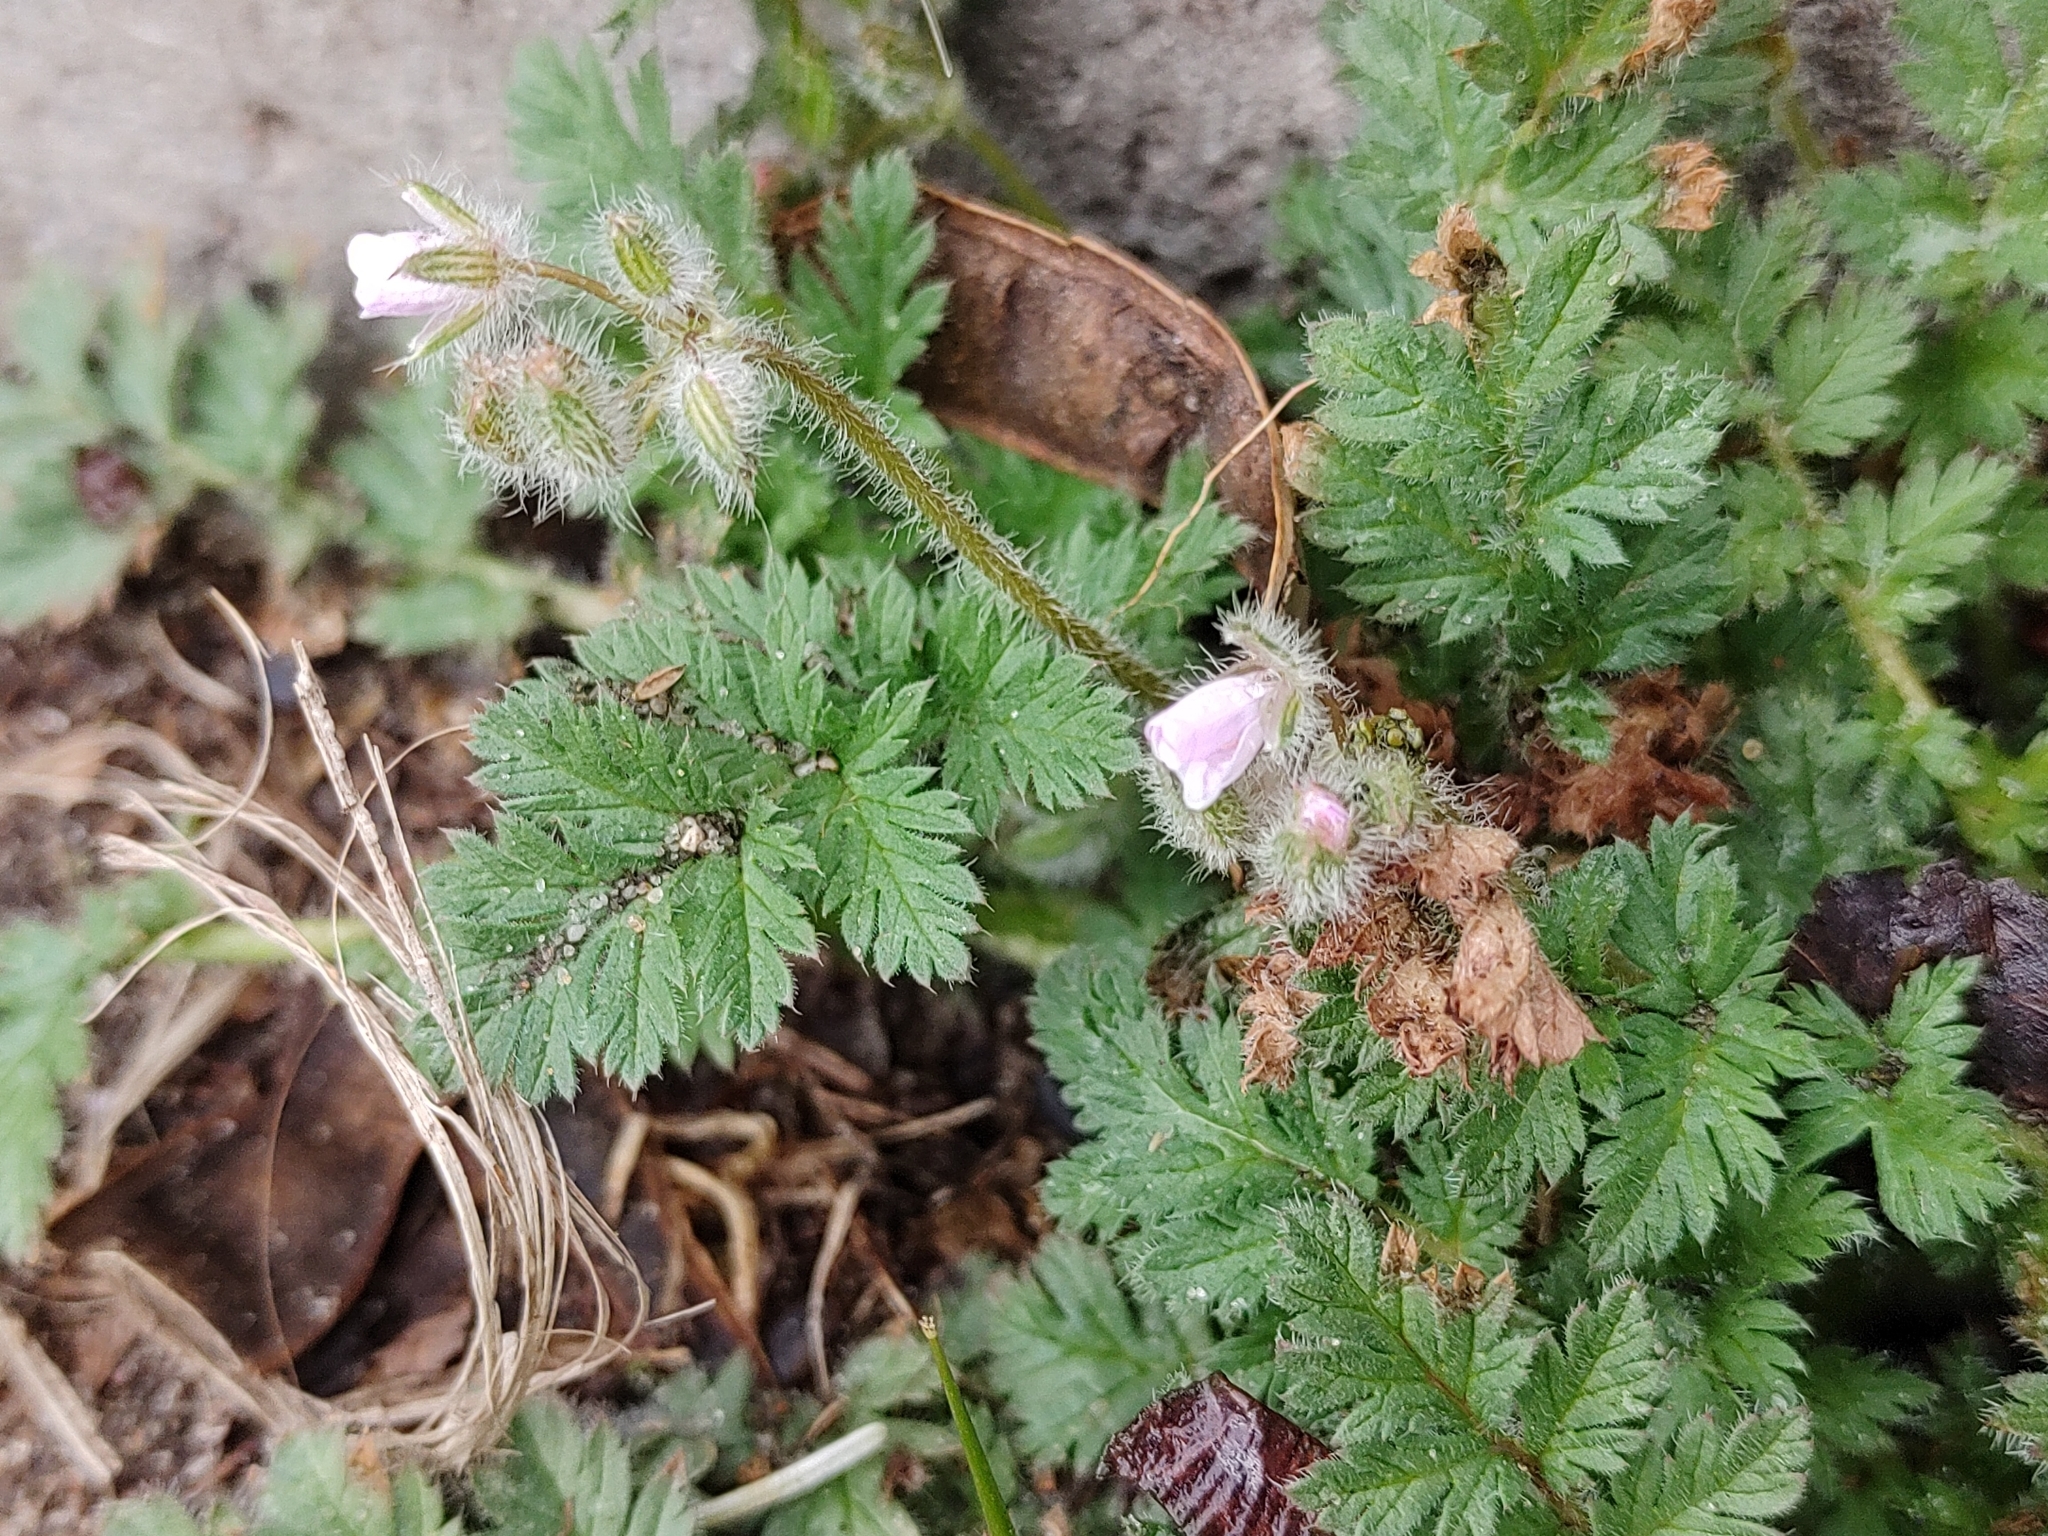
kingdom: Plantae
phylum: Tracheophyta
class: Magnoliopsida
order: Geraniales
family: Geraniaceae
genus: Erodium
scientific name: Erodium cicutarium
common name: Common stork's-bill
